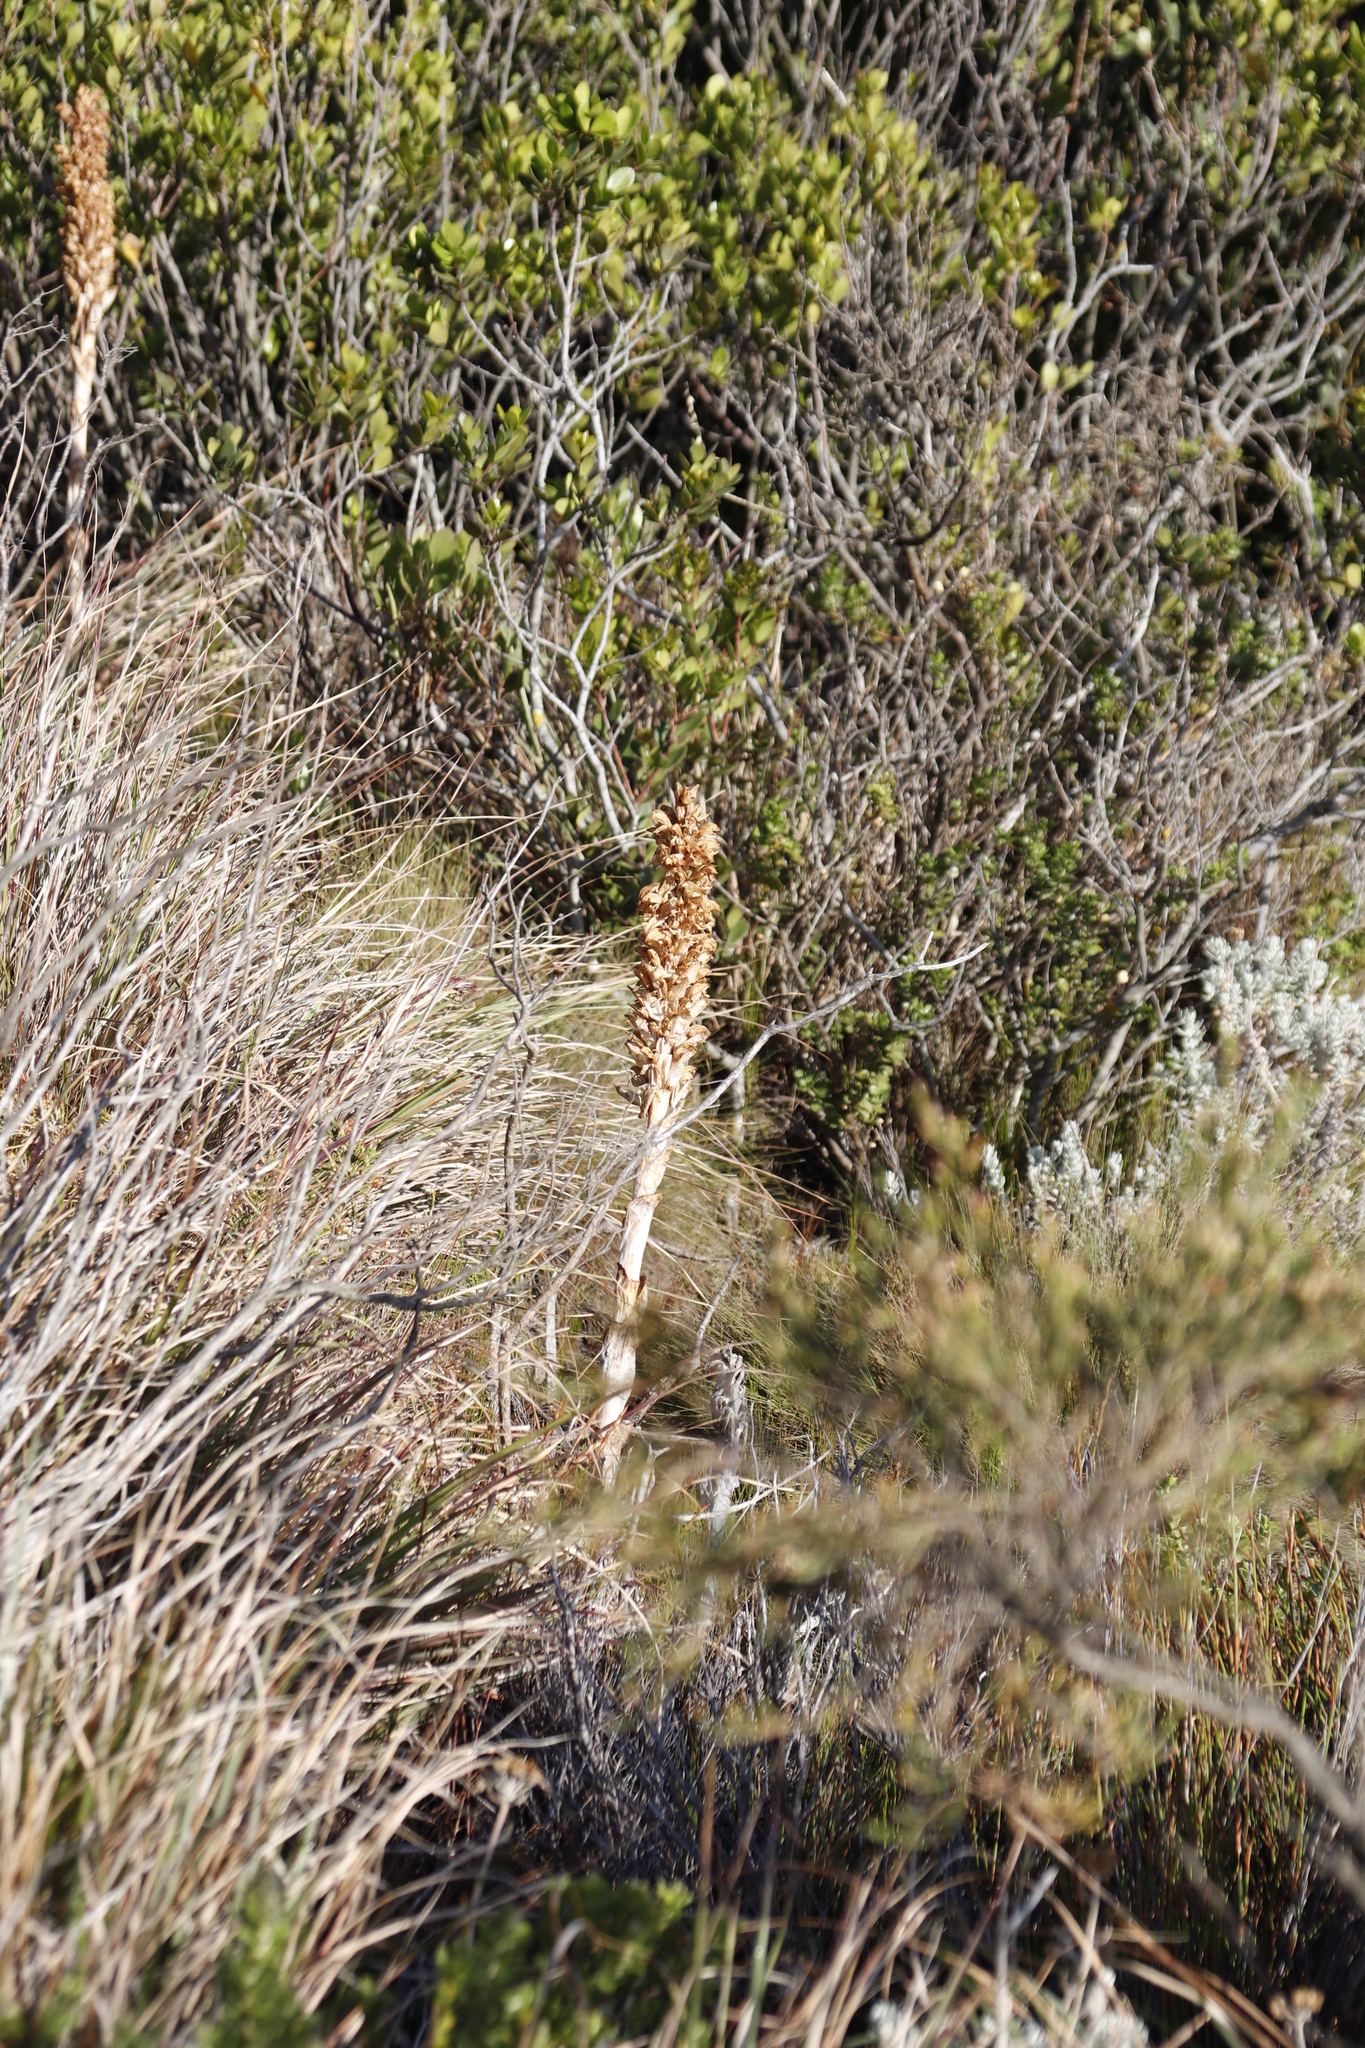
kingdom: Plantae
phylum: Tracheophyta
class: Liliopsida
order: Asparagales
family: Orchidaceae
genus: Satyrium
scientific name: Satyrium carneum
